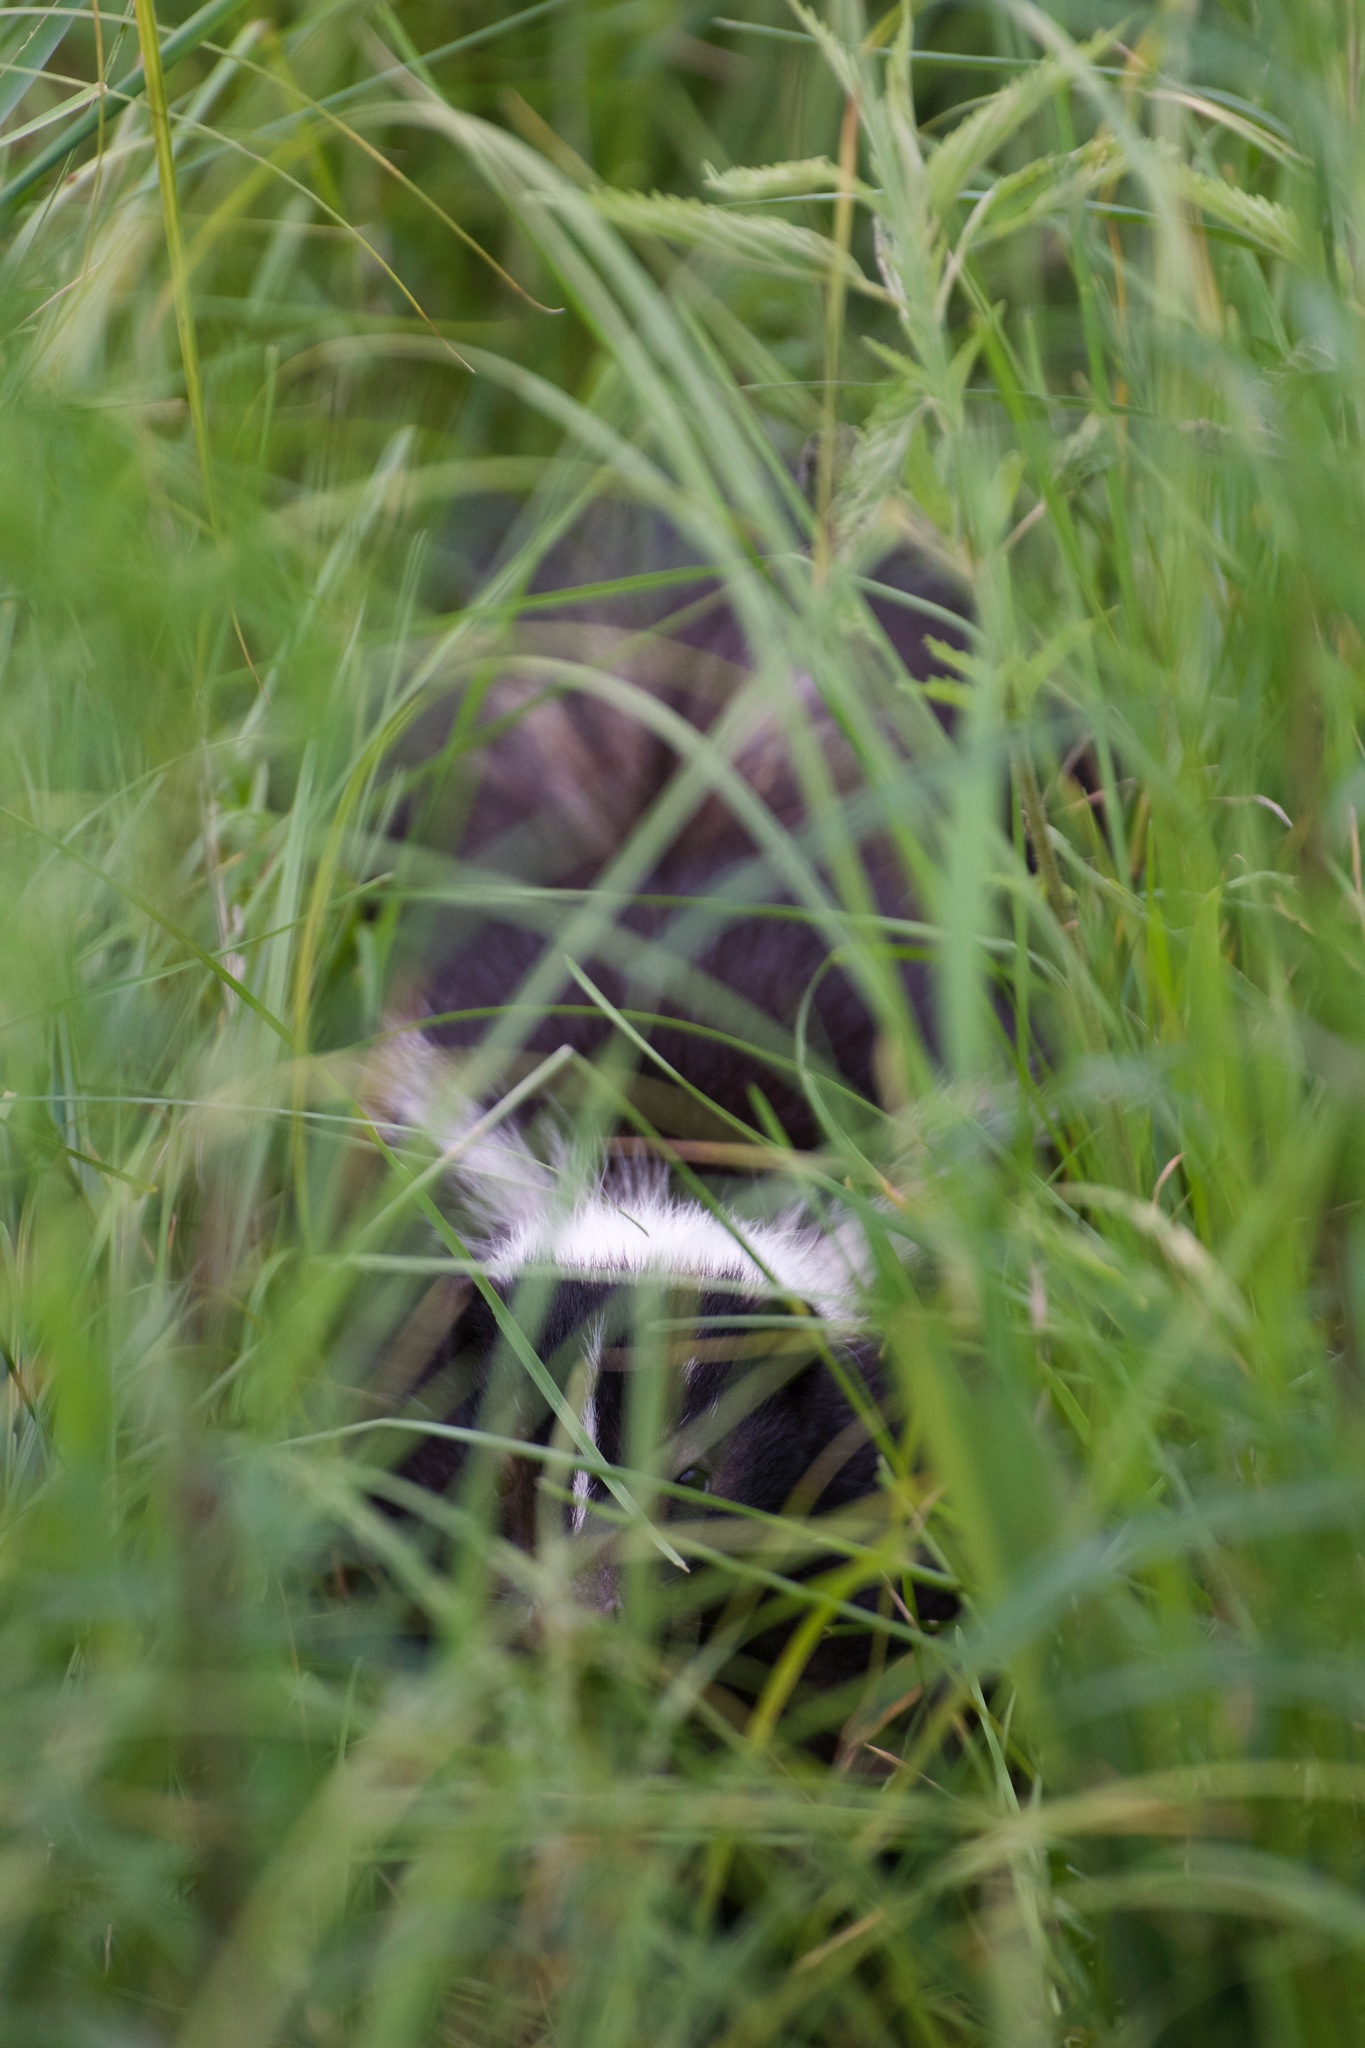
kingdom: Animalia
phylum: Chordata
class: Mammalia
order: Carnivora
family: Mephitidae
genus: Mephitis
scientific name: Mephitis mephitis
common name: Striped skunk
